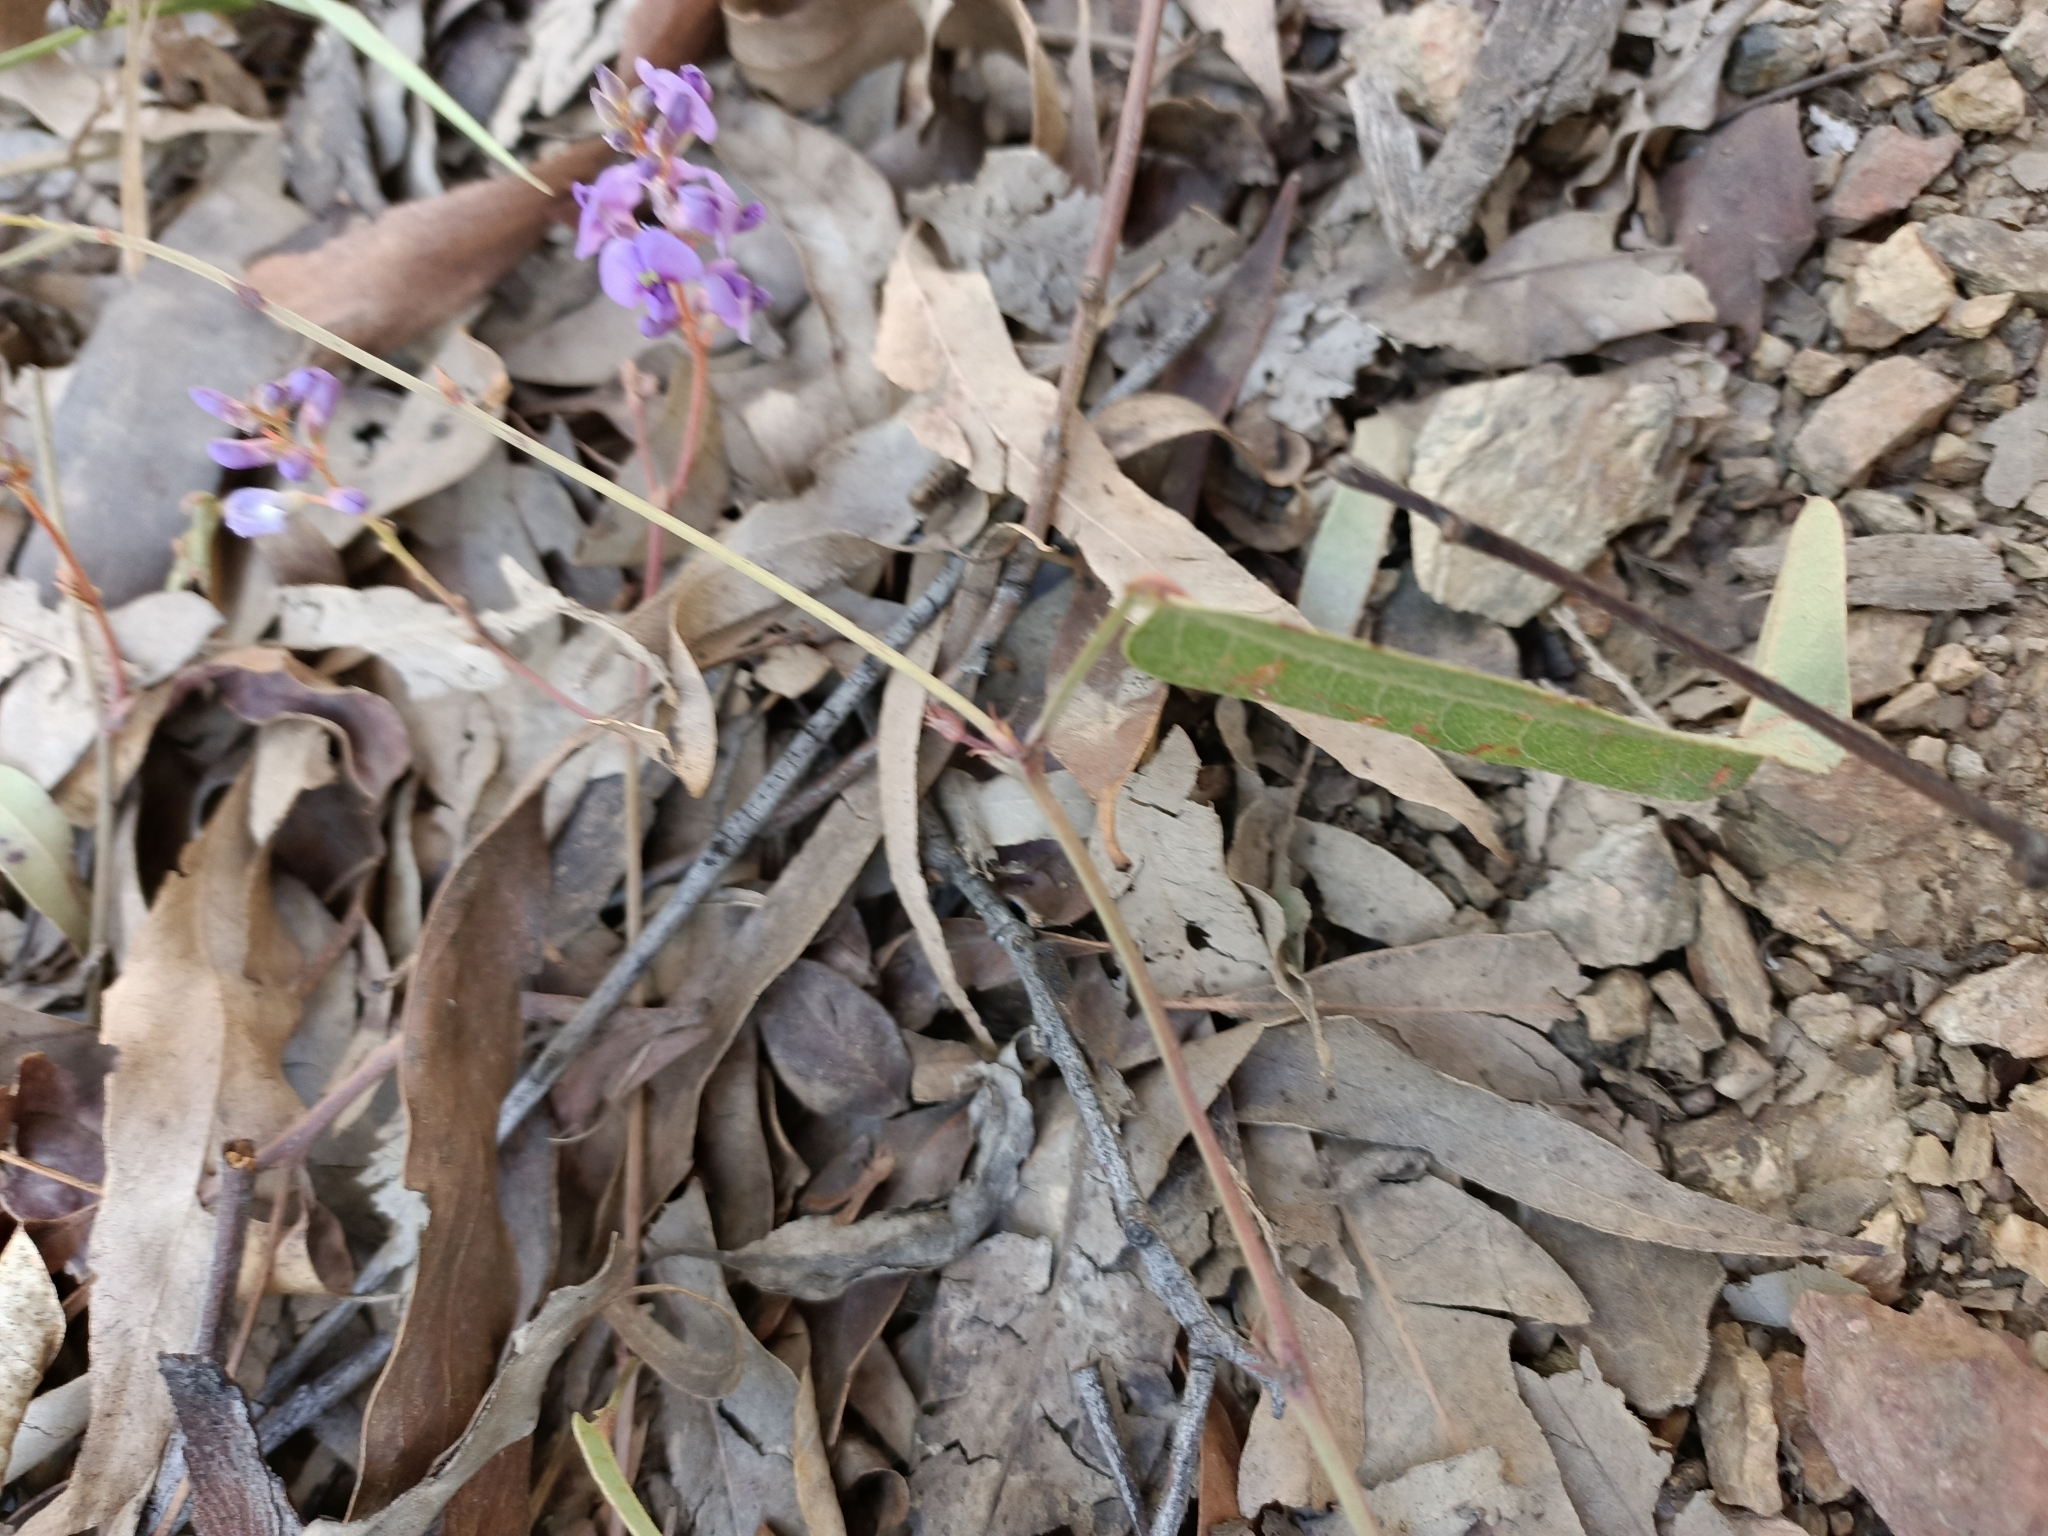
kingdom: Plantae
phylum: Tracheophyta
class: Magnoliopsida
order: Fabales
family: Fabaceae
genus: Hardenbergia
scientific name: Hardenbergia violacea
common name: Coral-pea
